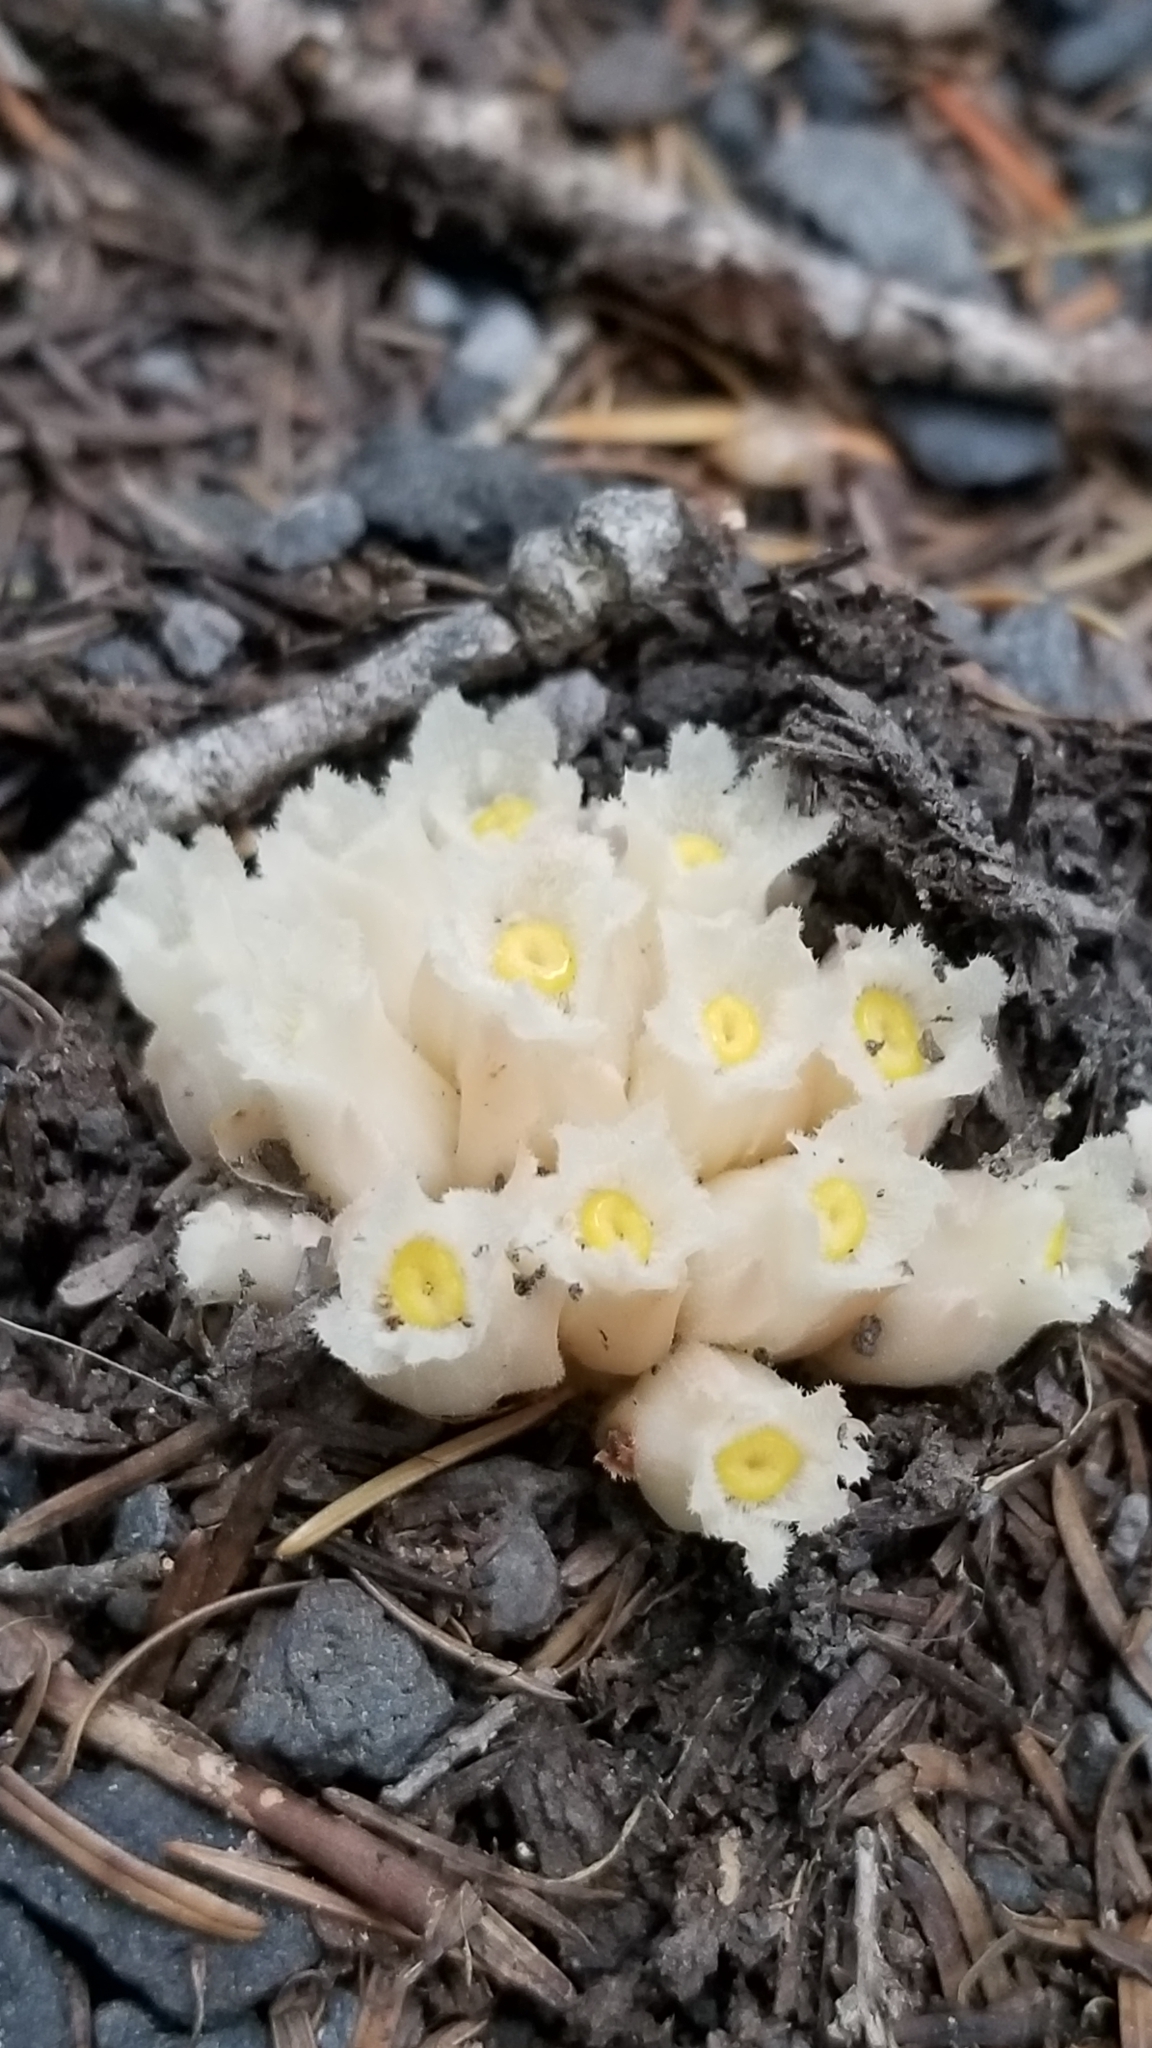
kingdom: Plantae
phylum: Tracheophyta
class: Magnoliopsida
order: Ericales
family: Ericaceae
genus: Hemitomes
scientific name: Hemitomes congestum
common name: Cone plant
